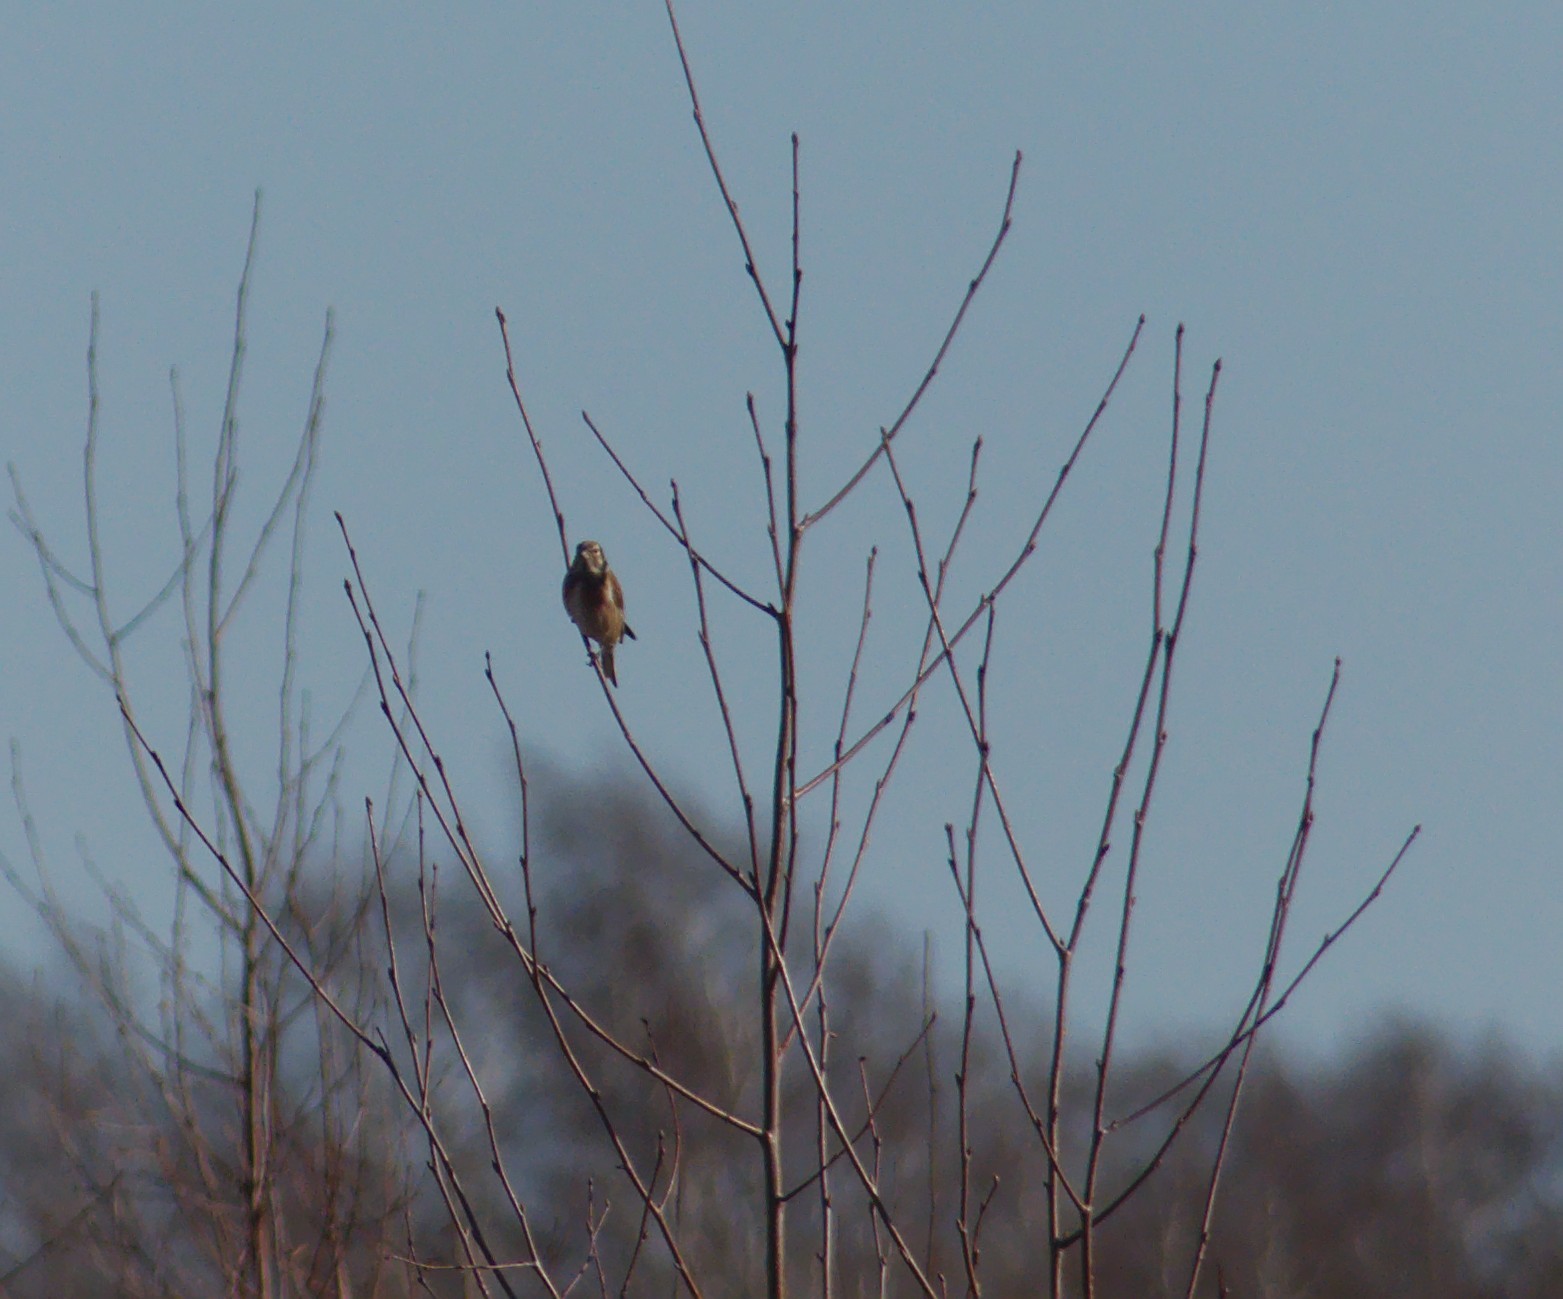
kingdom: Animalia
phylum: Chordata
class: Aves
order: Passeriformes
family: Fringillidae
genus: Linaria
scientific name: Linaria cannabina
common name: Common linnet
